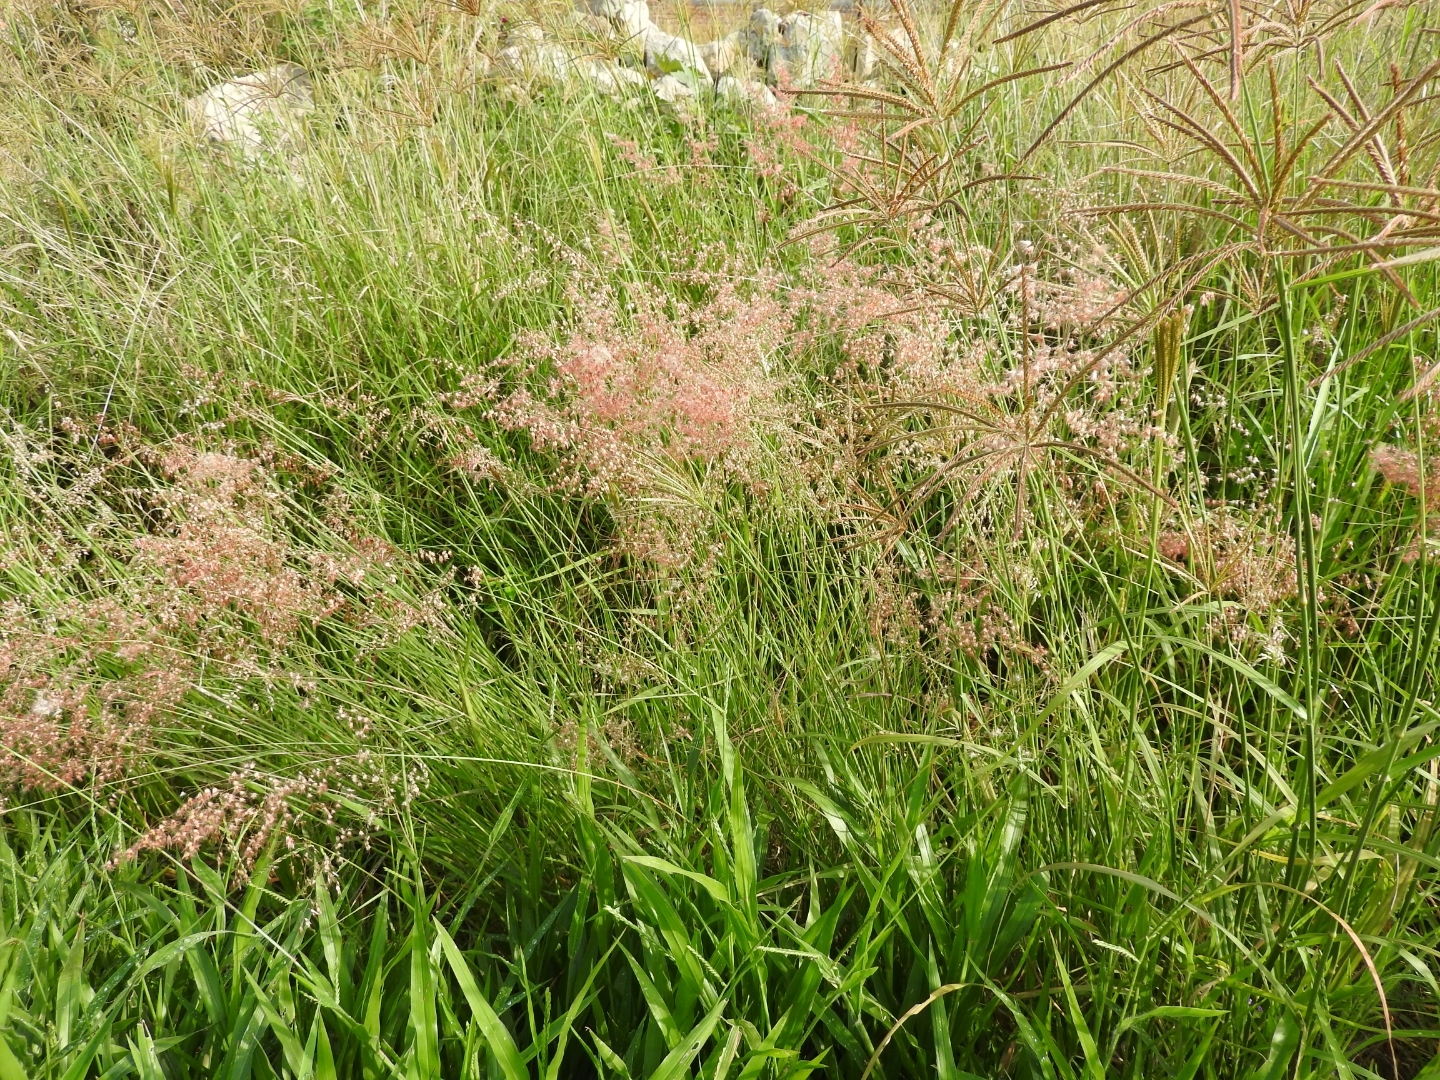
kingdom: Plantae
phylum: Tracheophyta
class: Liliopsida
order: Poales
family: Poaceae
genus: Melinis
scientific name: Melinis repens
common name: Rose natal grass
